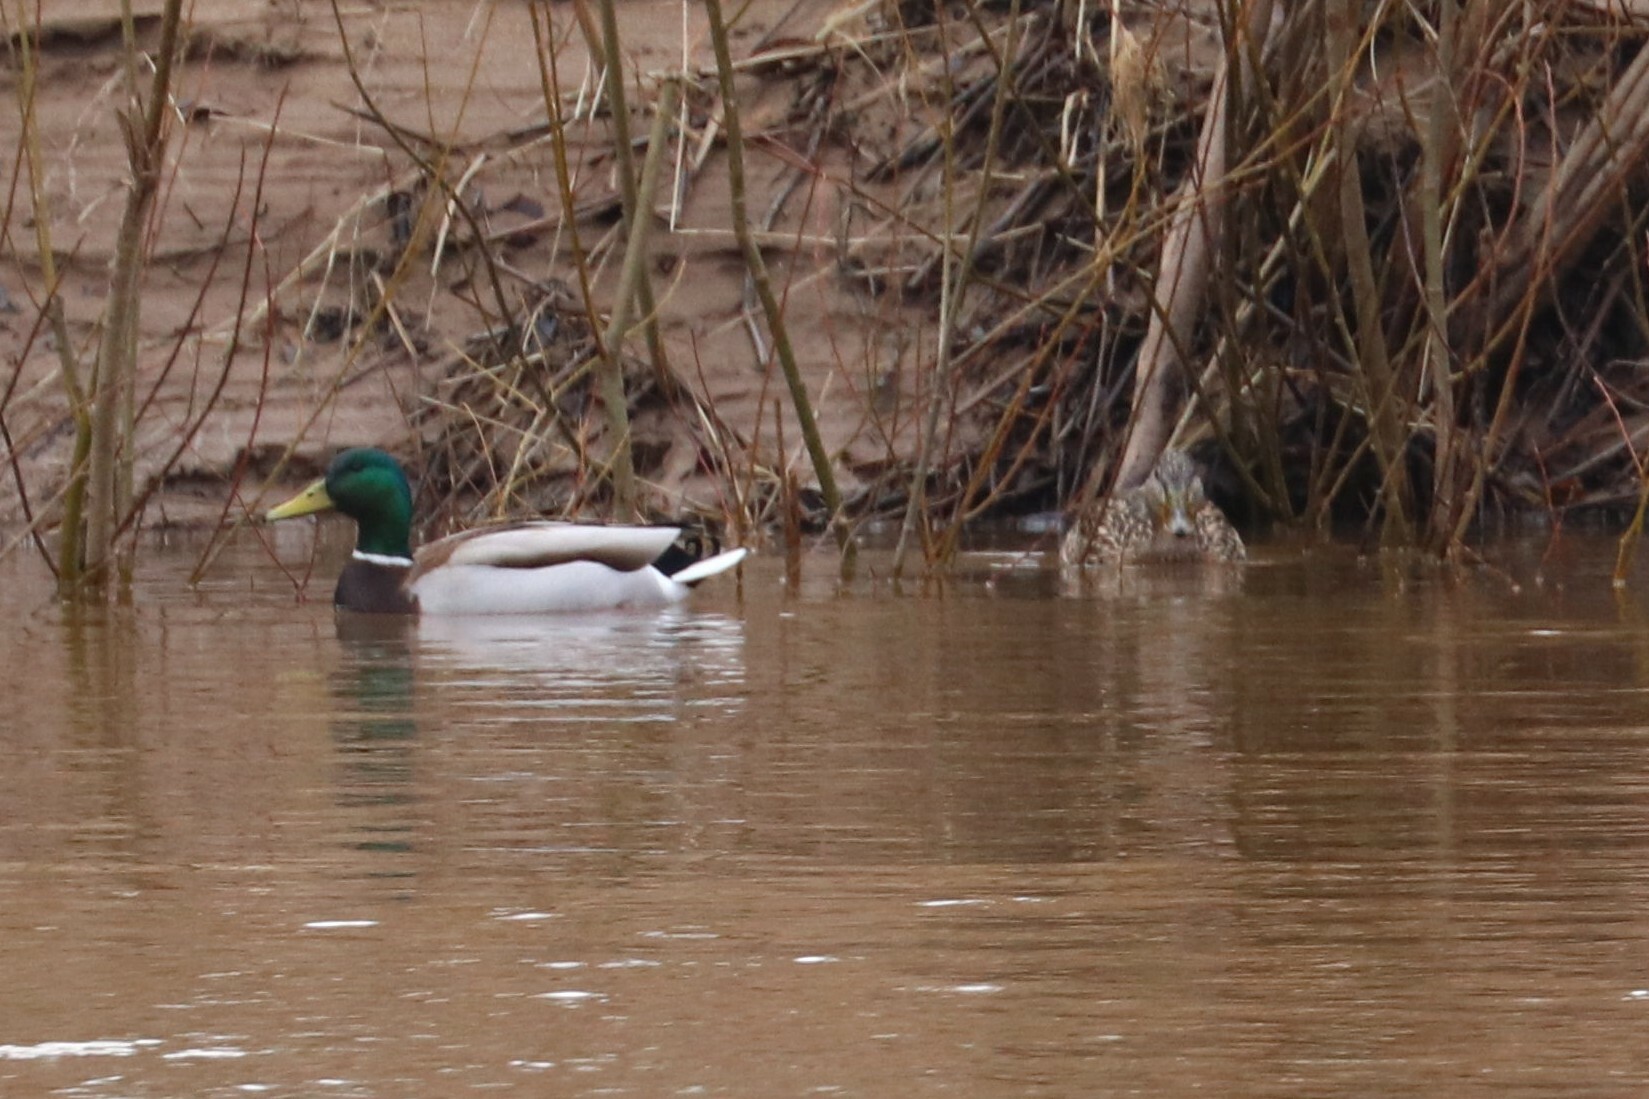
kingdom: Animalia
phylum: Chordata
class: Aves
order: Anseriformes
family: Anatidae
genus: Anas
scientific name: Anas platyrhynchos
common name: Mallard
